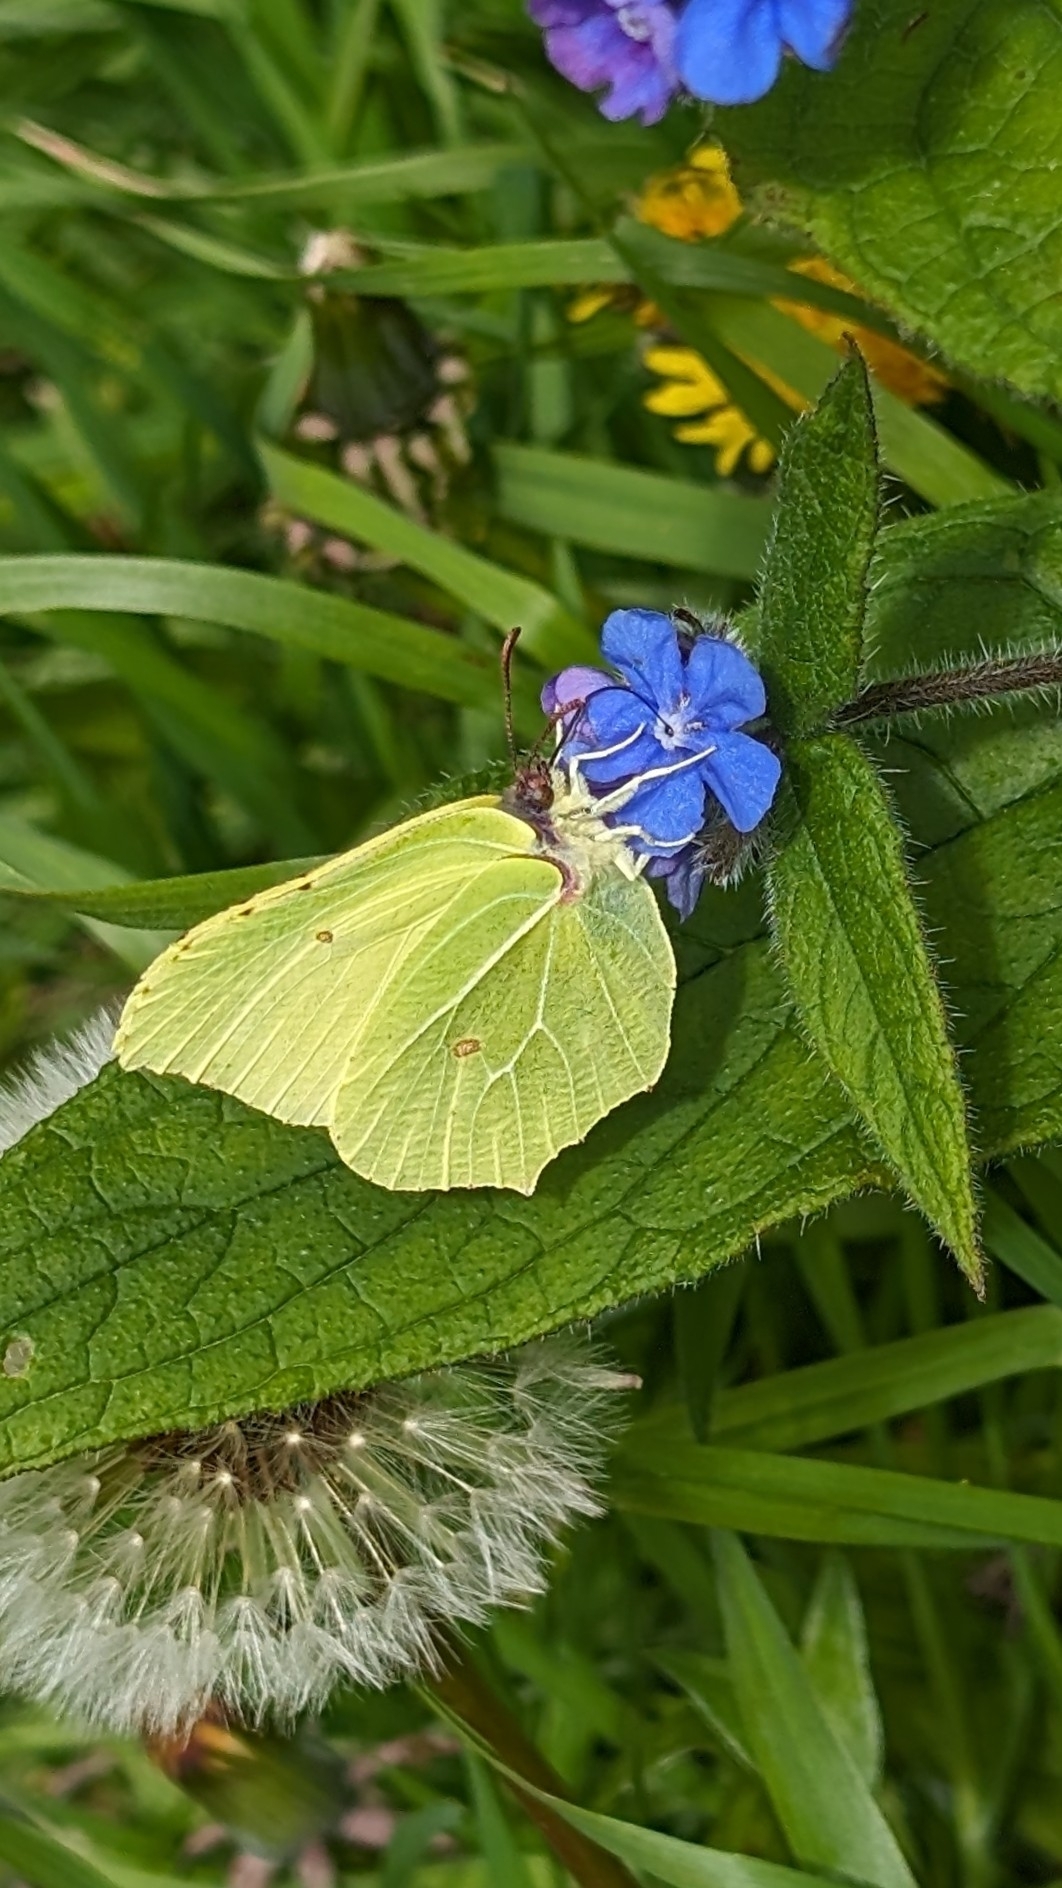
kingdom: Animalia
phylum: Arthropoda
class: Insecta
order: Lepidoptera
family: Pieridae
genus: Gonepteryx
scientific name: Gonepteryx rhamni
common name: Brimstone
